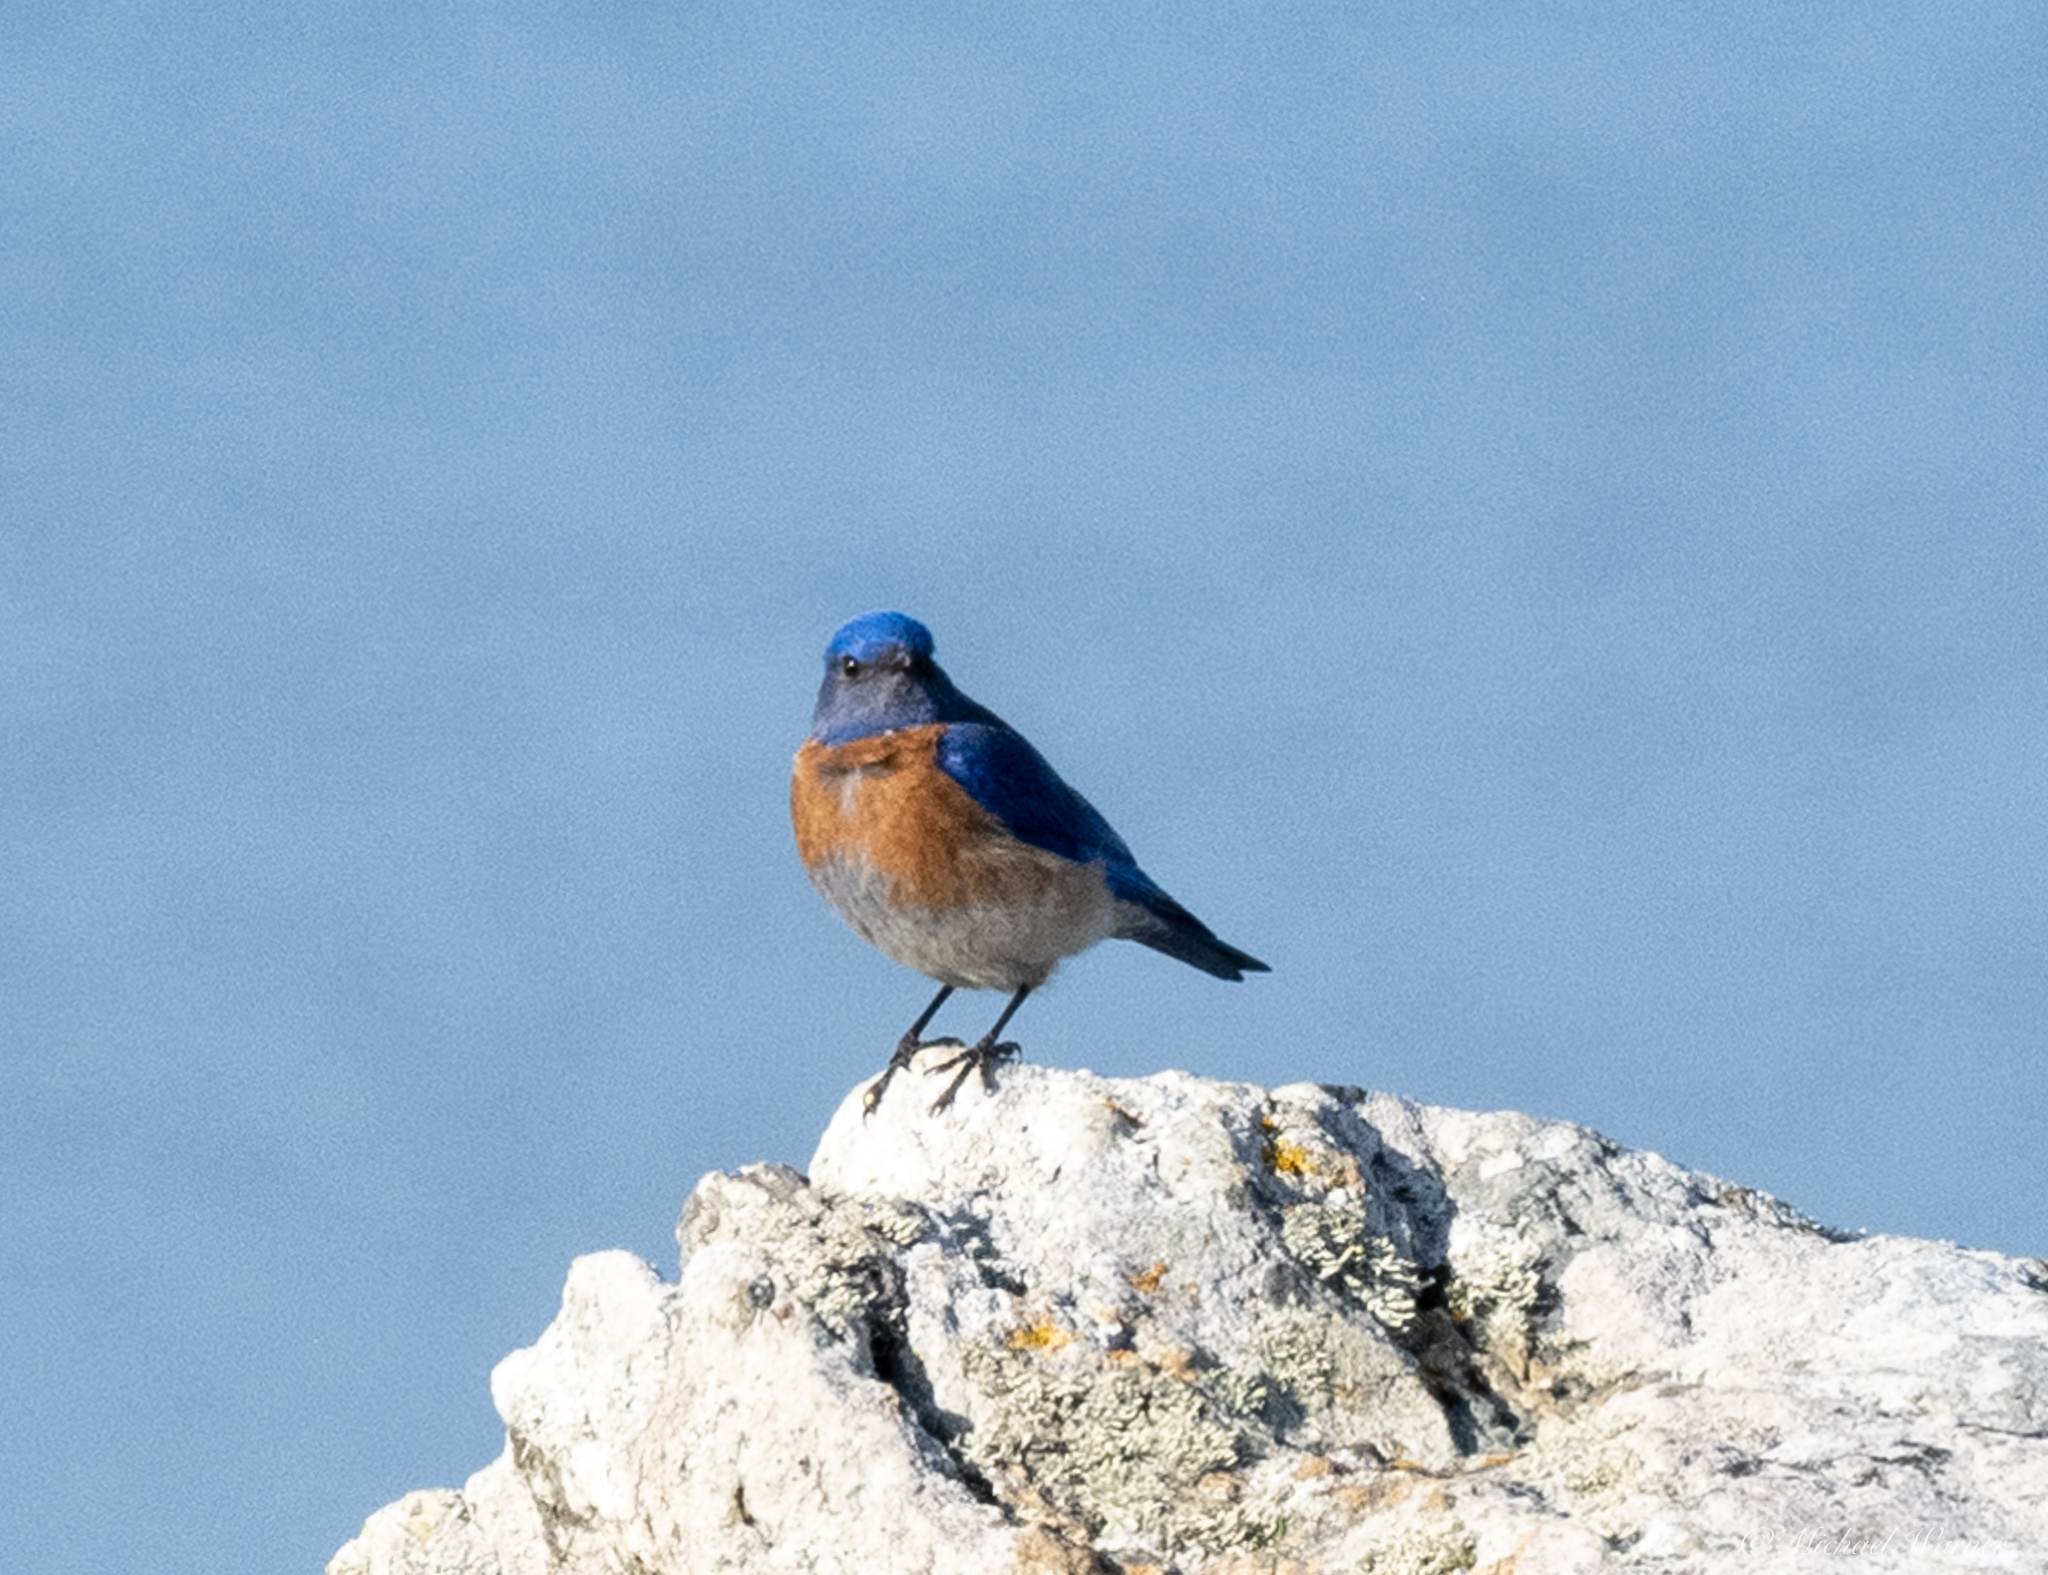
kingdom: Animalia
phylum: Chordata
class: Aves
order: Passeriformes
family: Turdidae
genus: Sialia
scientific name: Sialia mexicana
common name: Western bluebird
